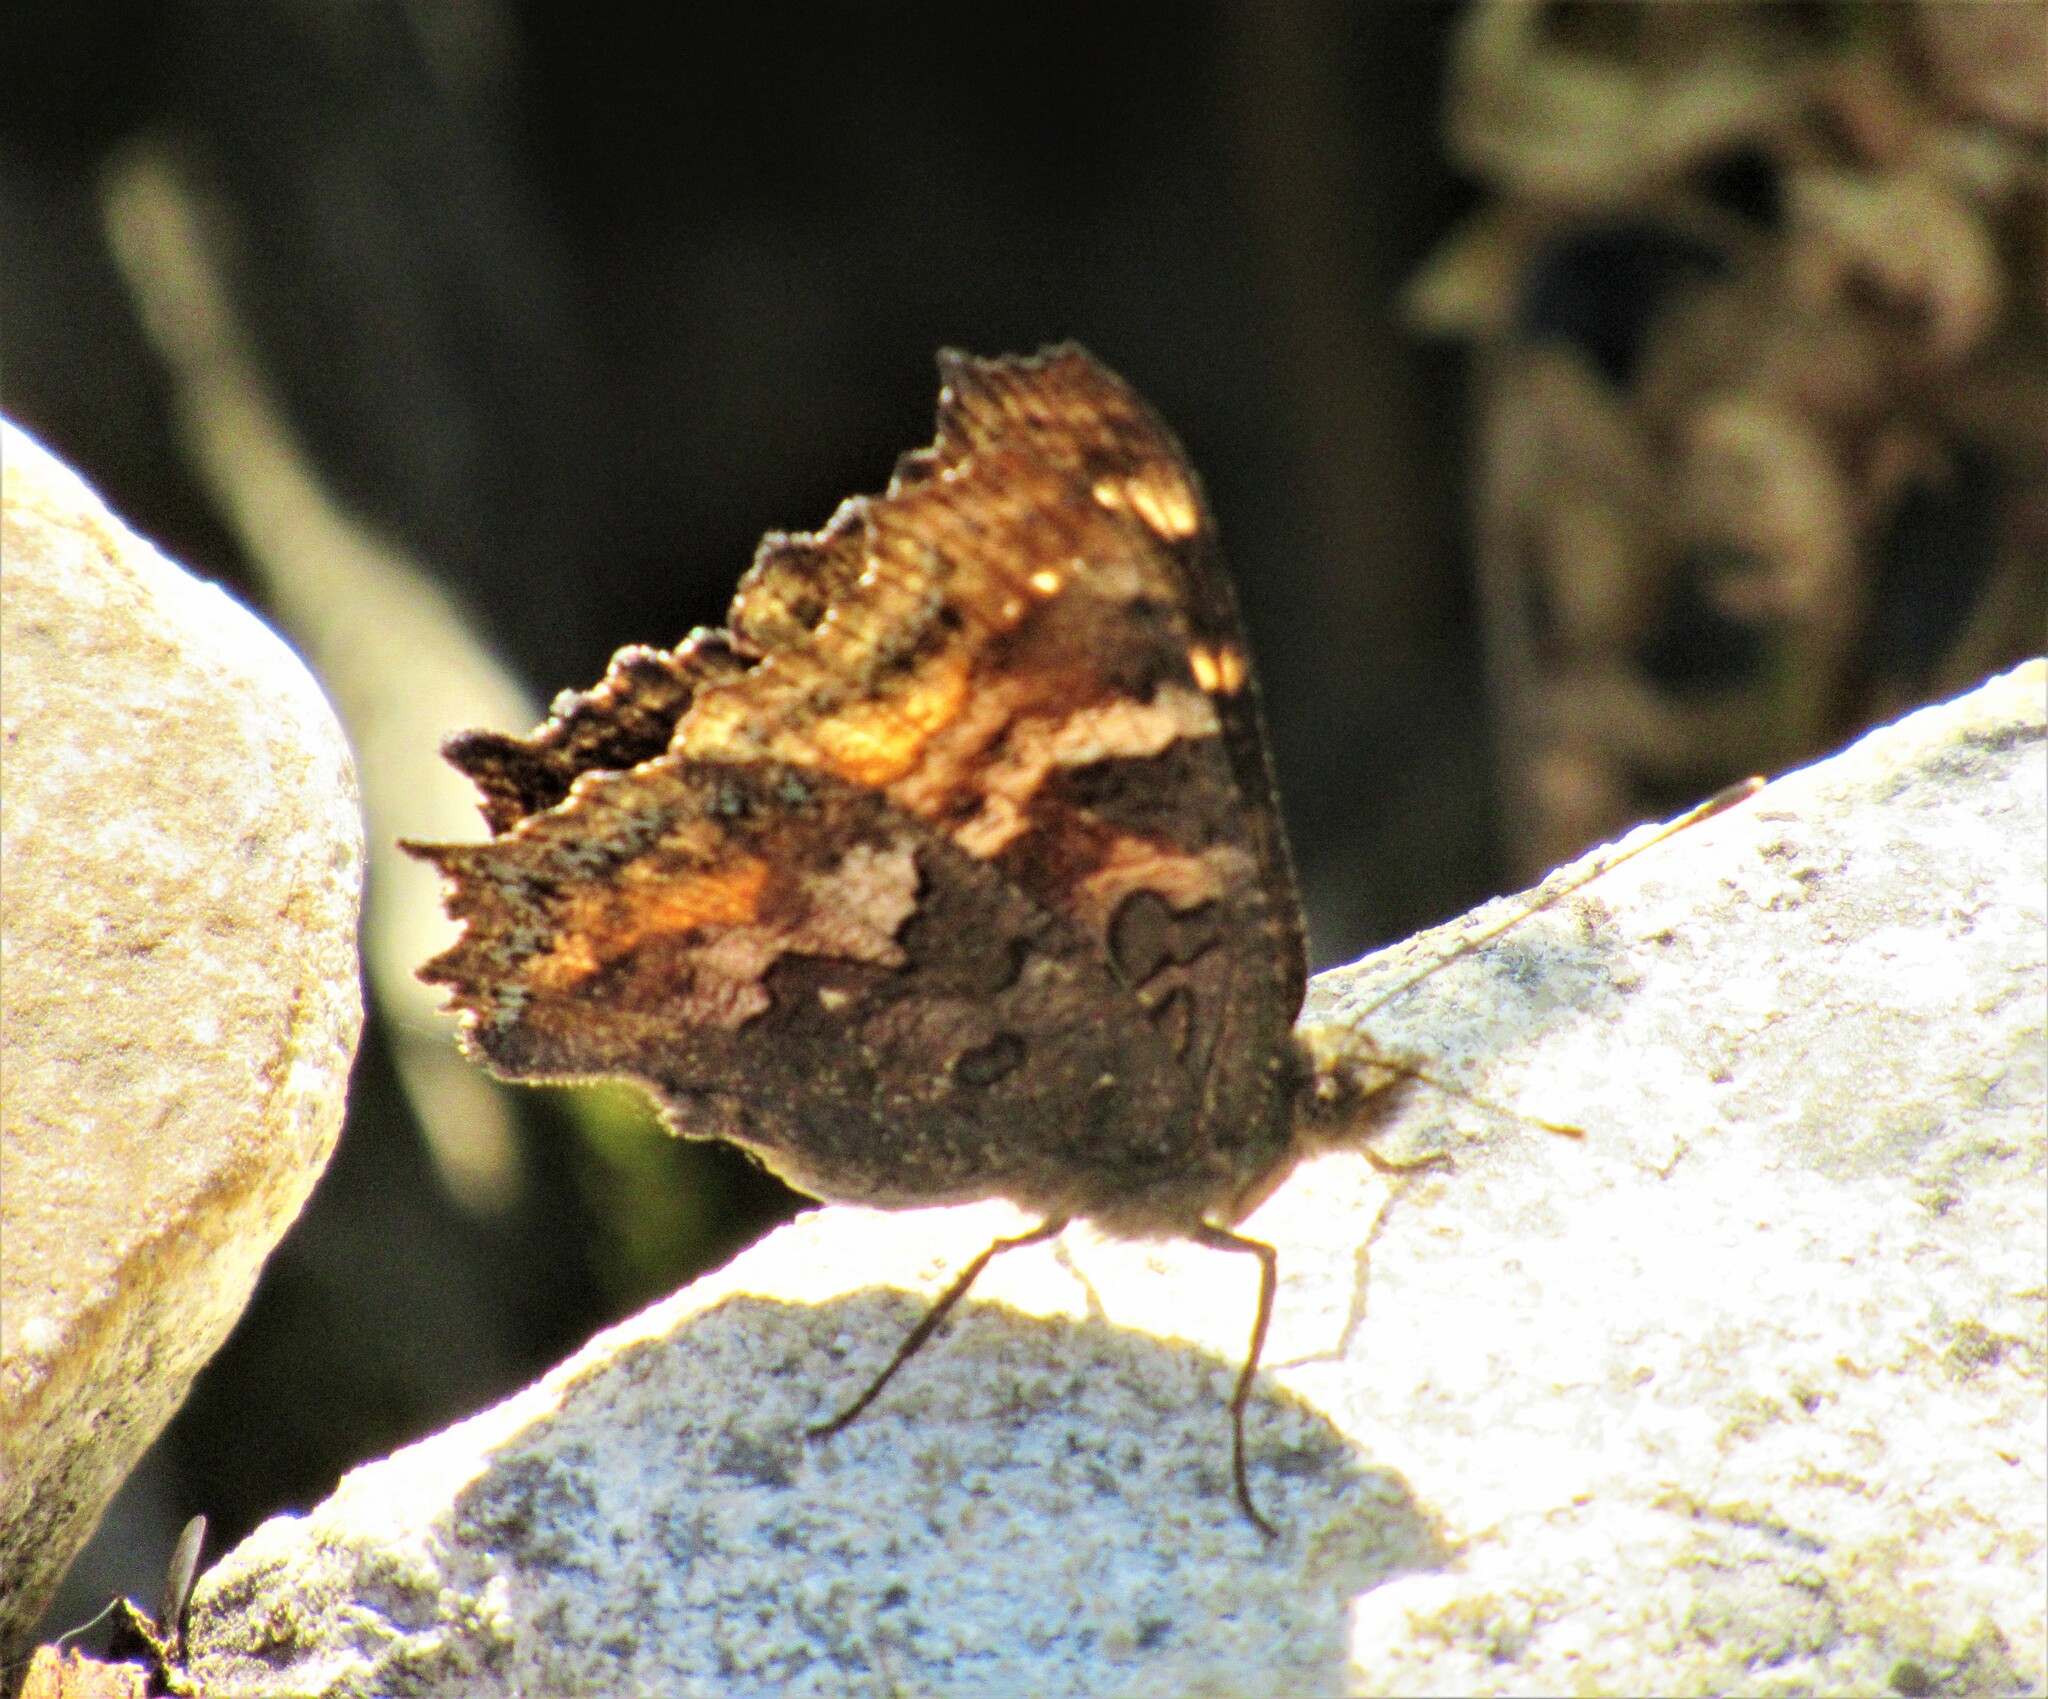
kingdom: Animalia
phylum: Arthropoda
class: Insecta
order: Lepidoptera
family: Nymphalidae
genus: Nymphalis
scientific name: Nymphalis californica
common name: California tortoiseshell
